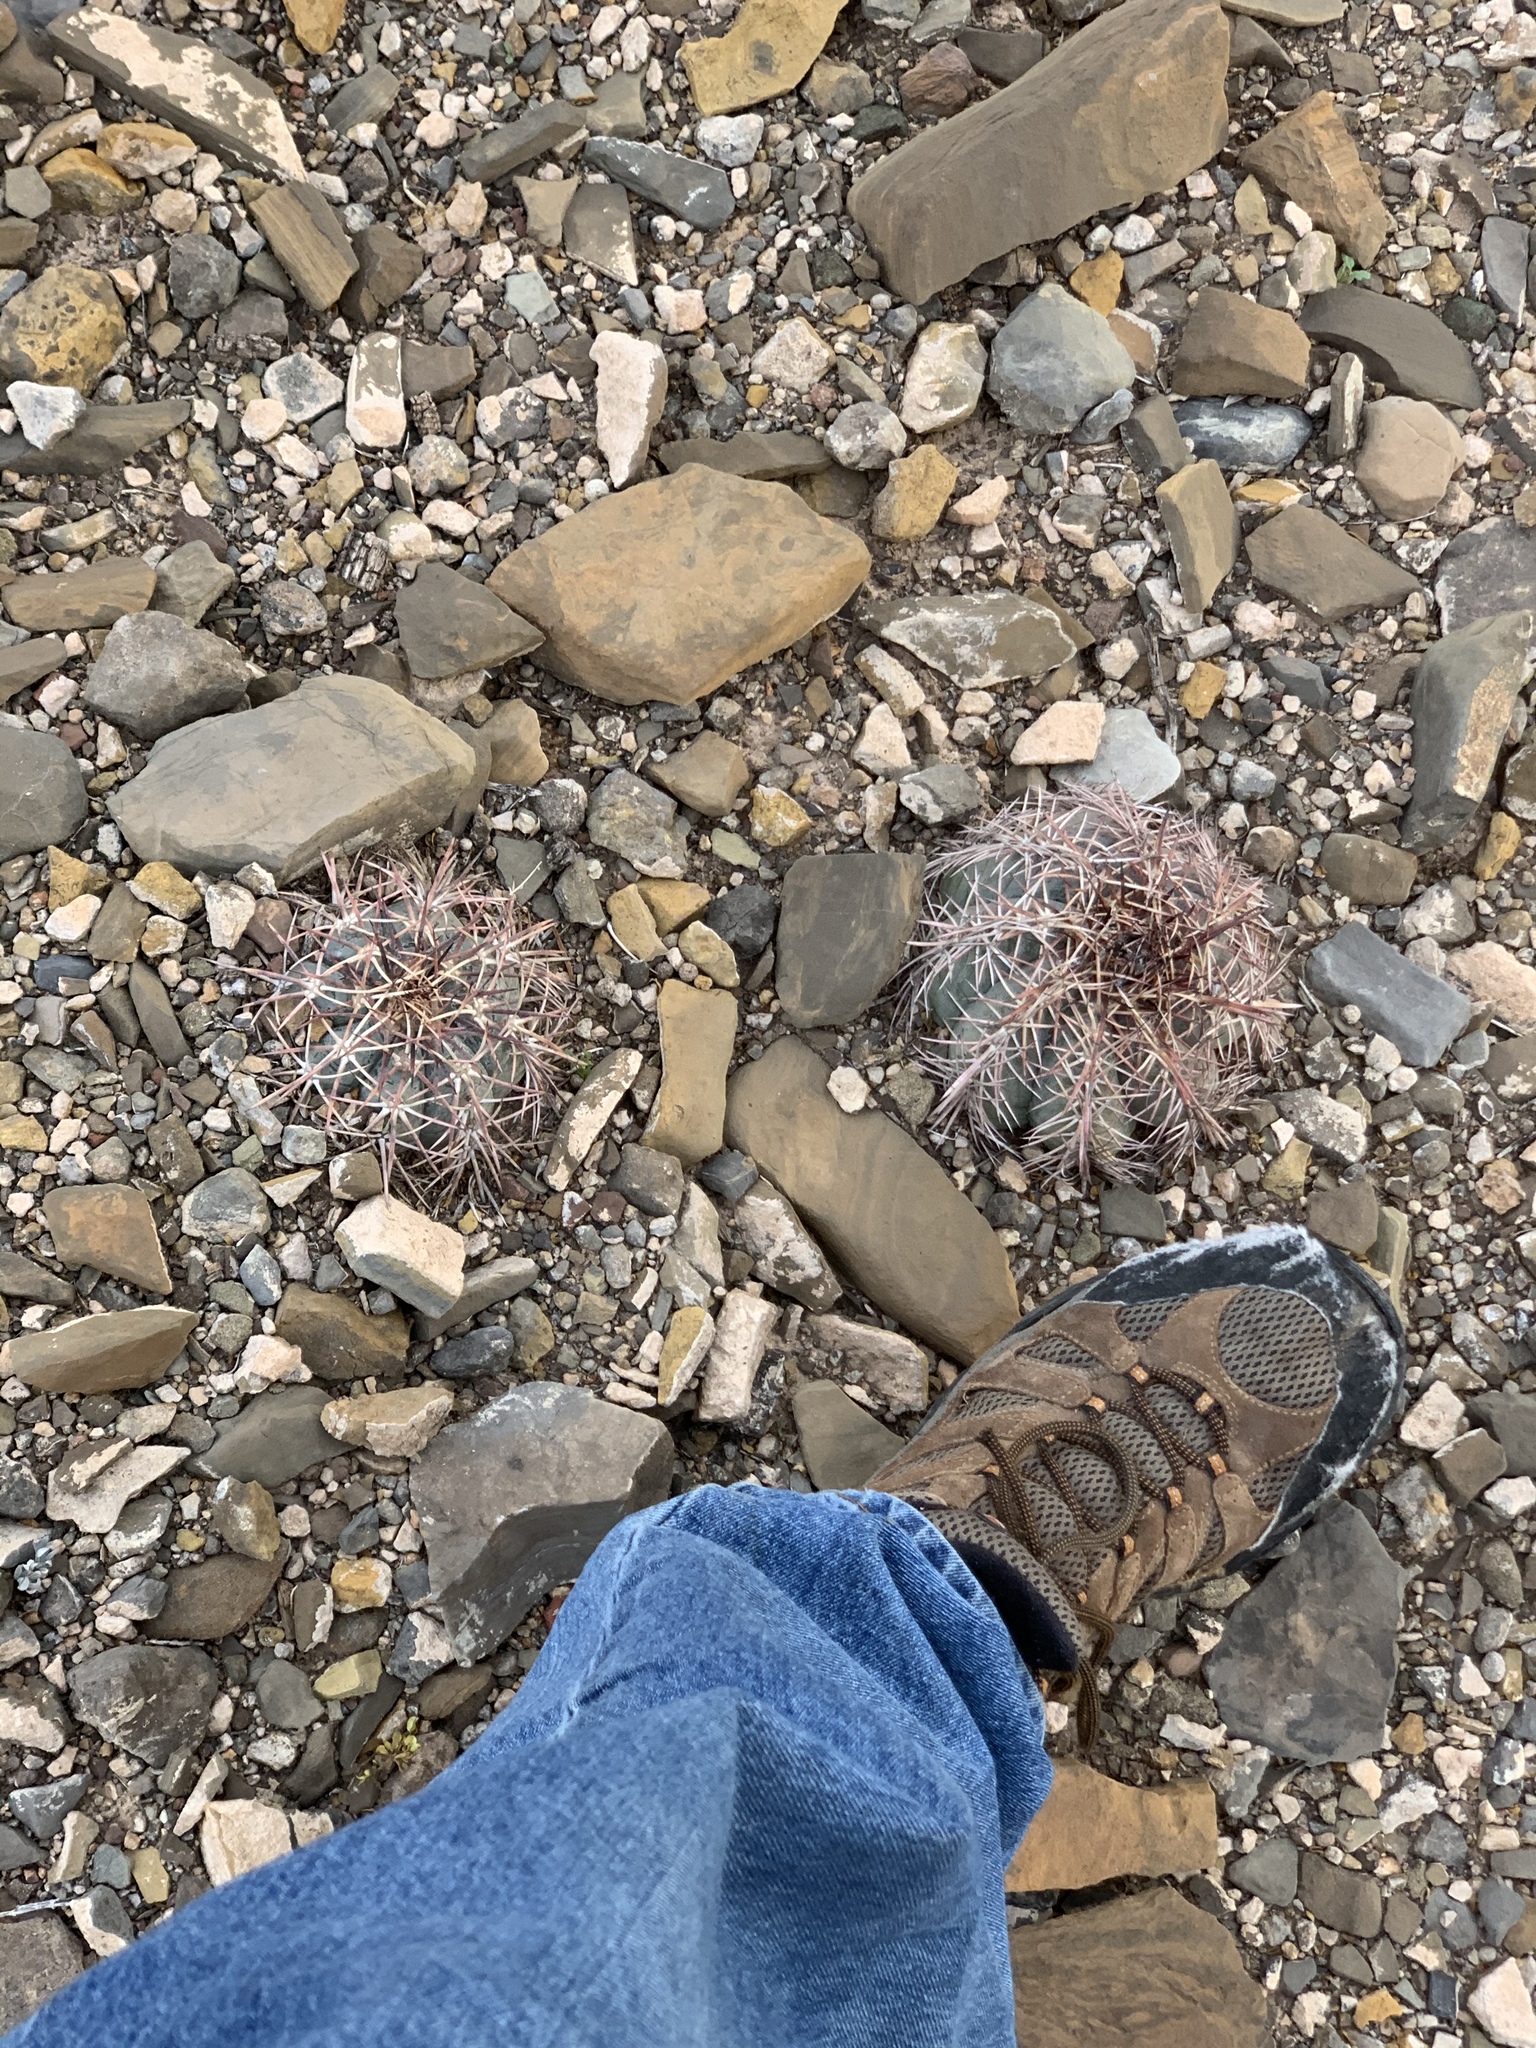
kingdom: Plantae
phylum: Tracheophyta
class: Magnoliopsida
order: Caryophyllales
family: Cactaceae
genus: Echinocactus
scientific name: Echinocactus horizonthalonius
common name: Devilshead
